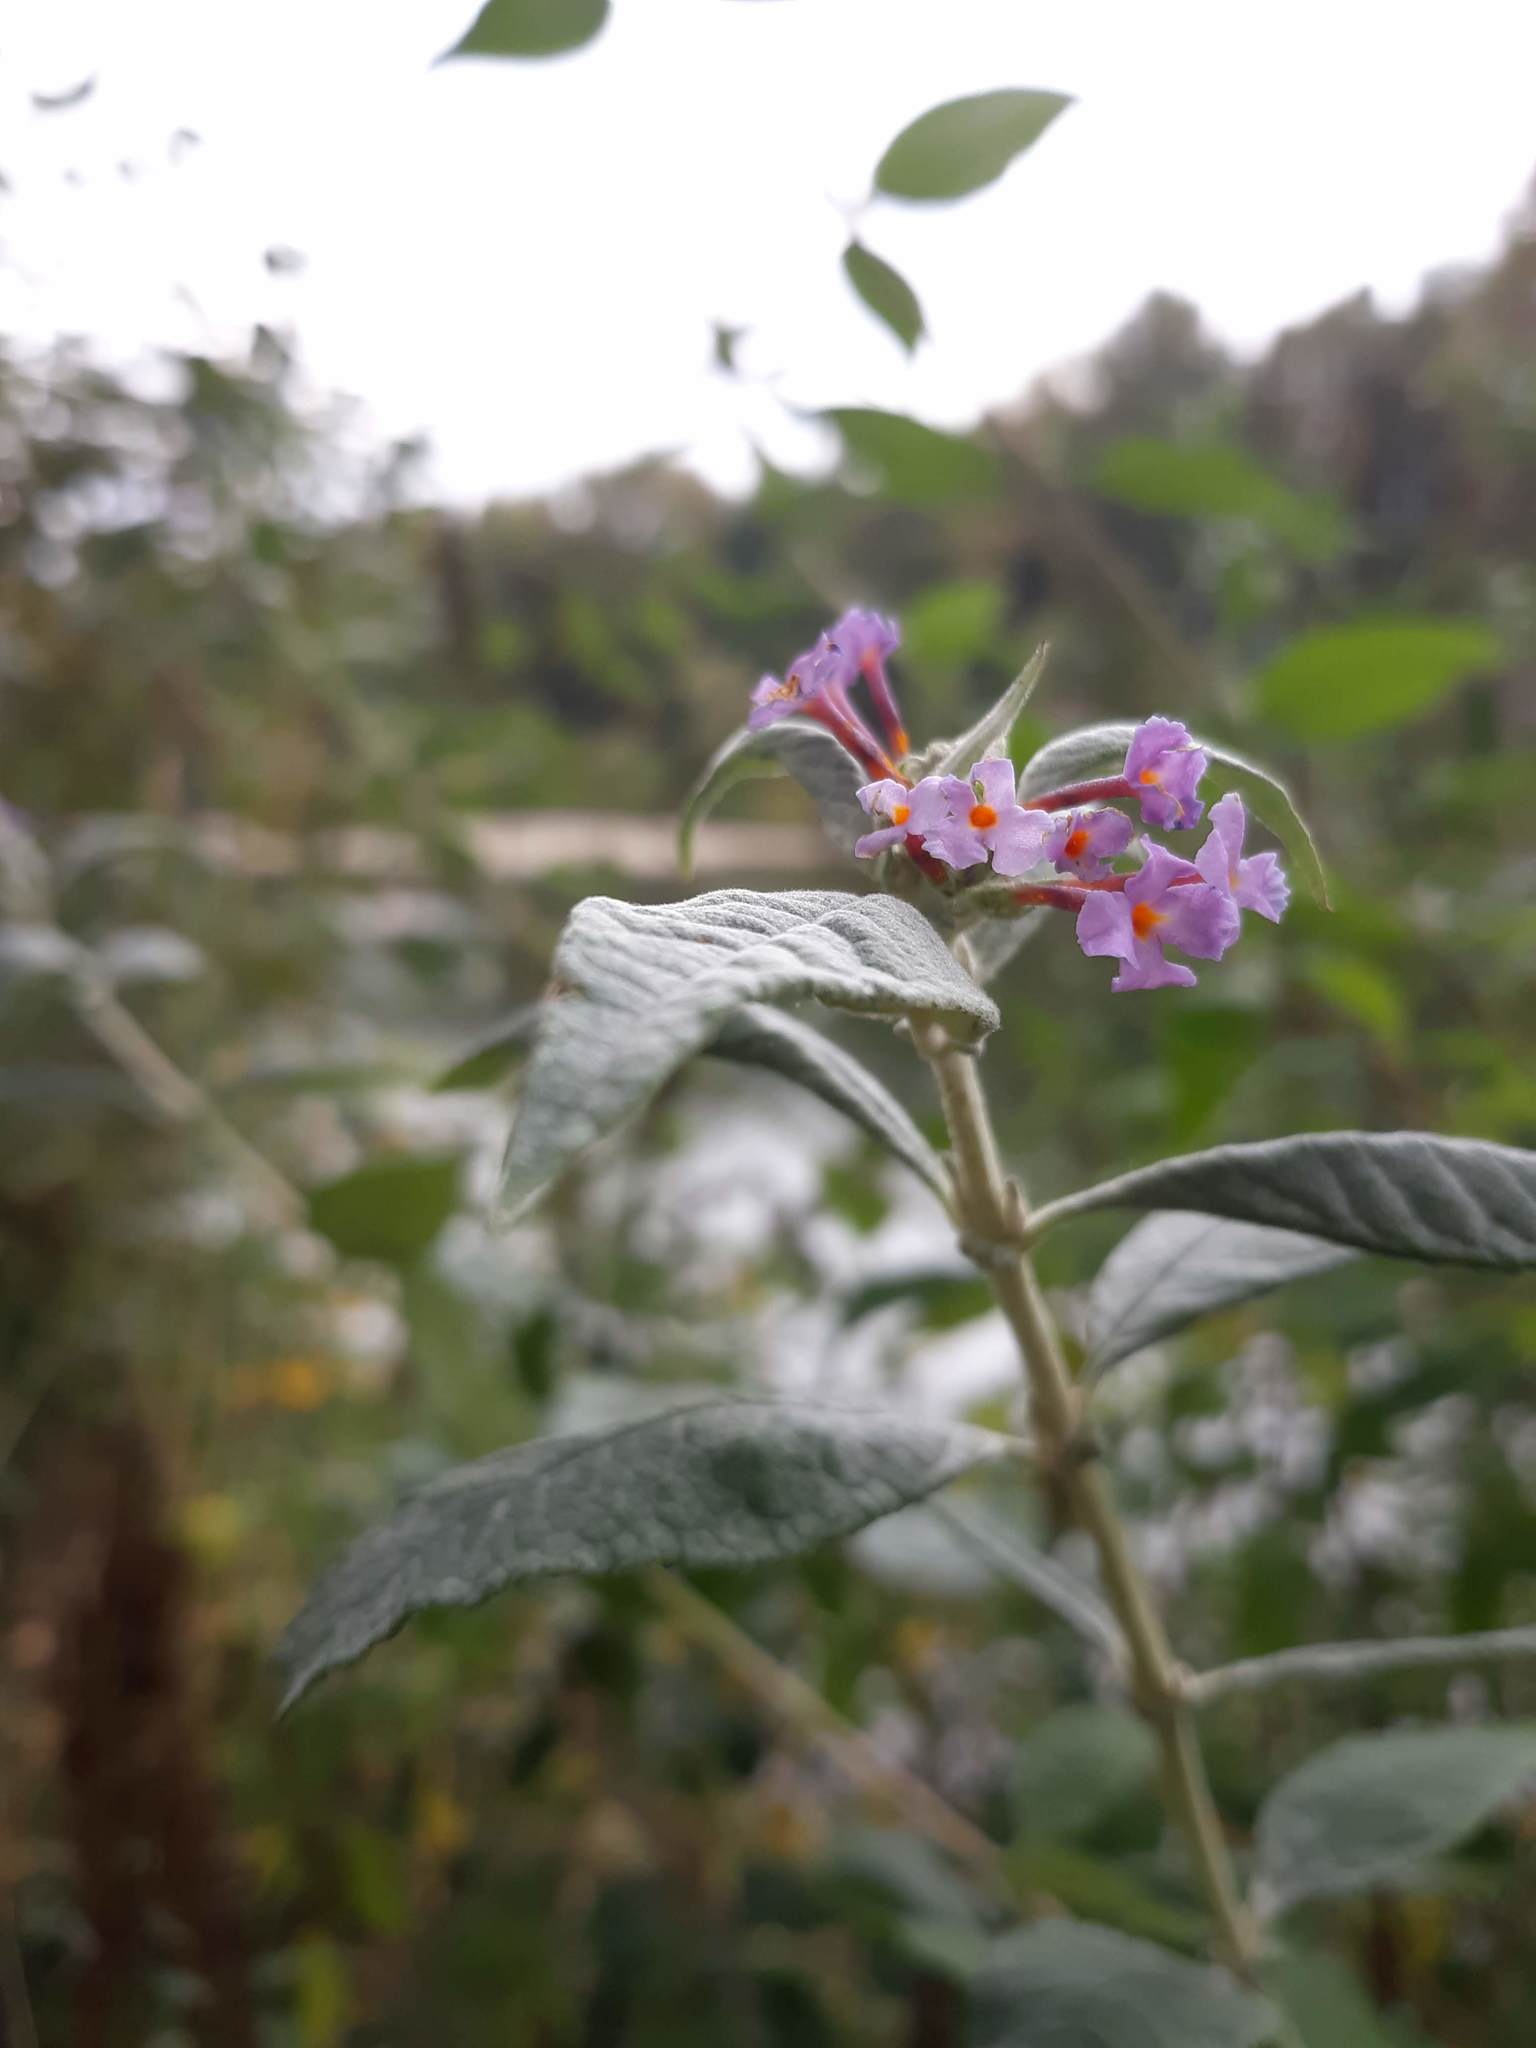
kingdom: Plantae
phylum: Tracheophyta
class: Magnoliopsida
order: Lamiales
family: Scrophulariaceae
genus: Buddleja
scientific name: Buddleja davidii
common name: Butterfly-bush
